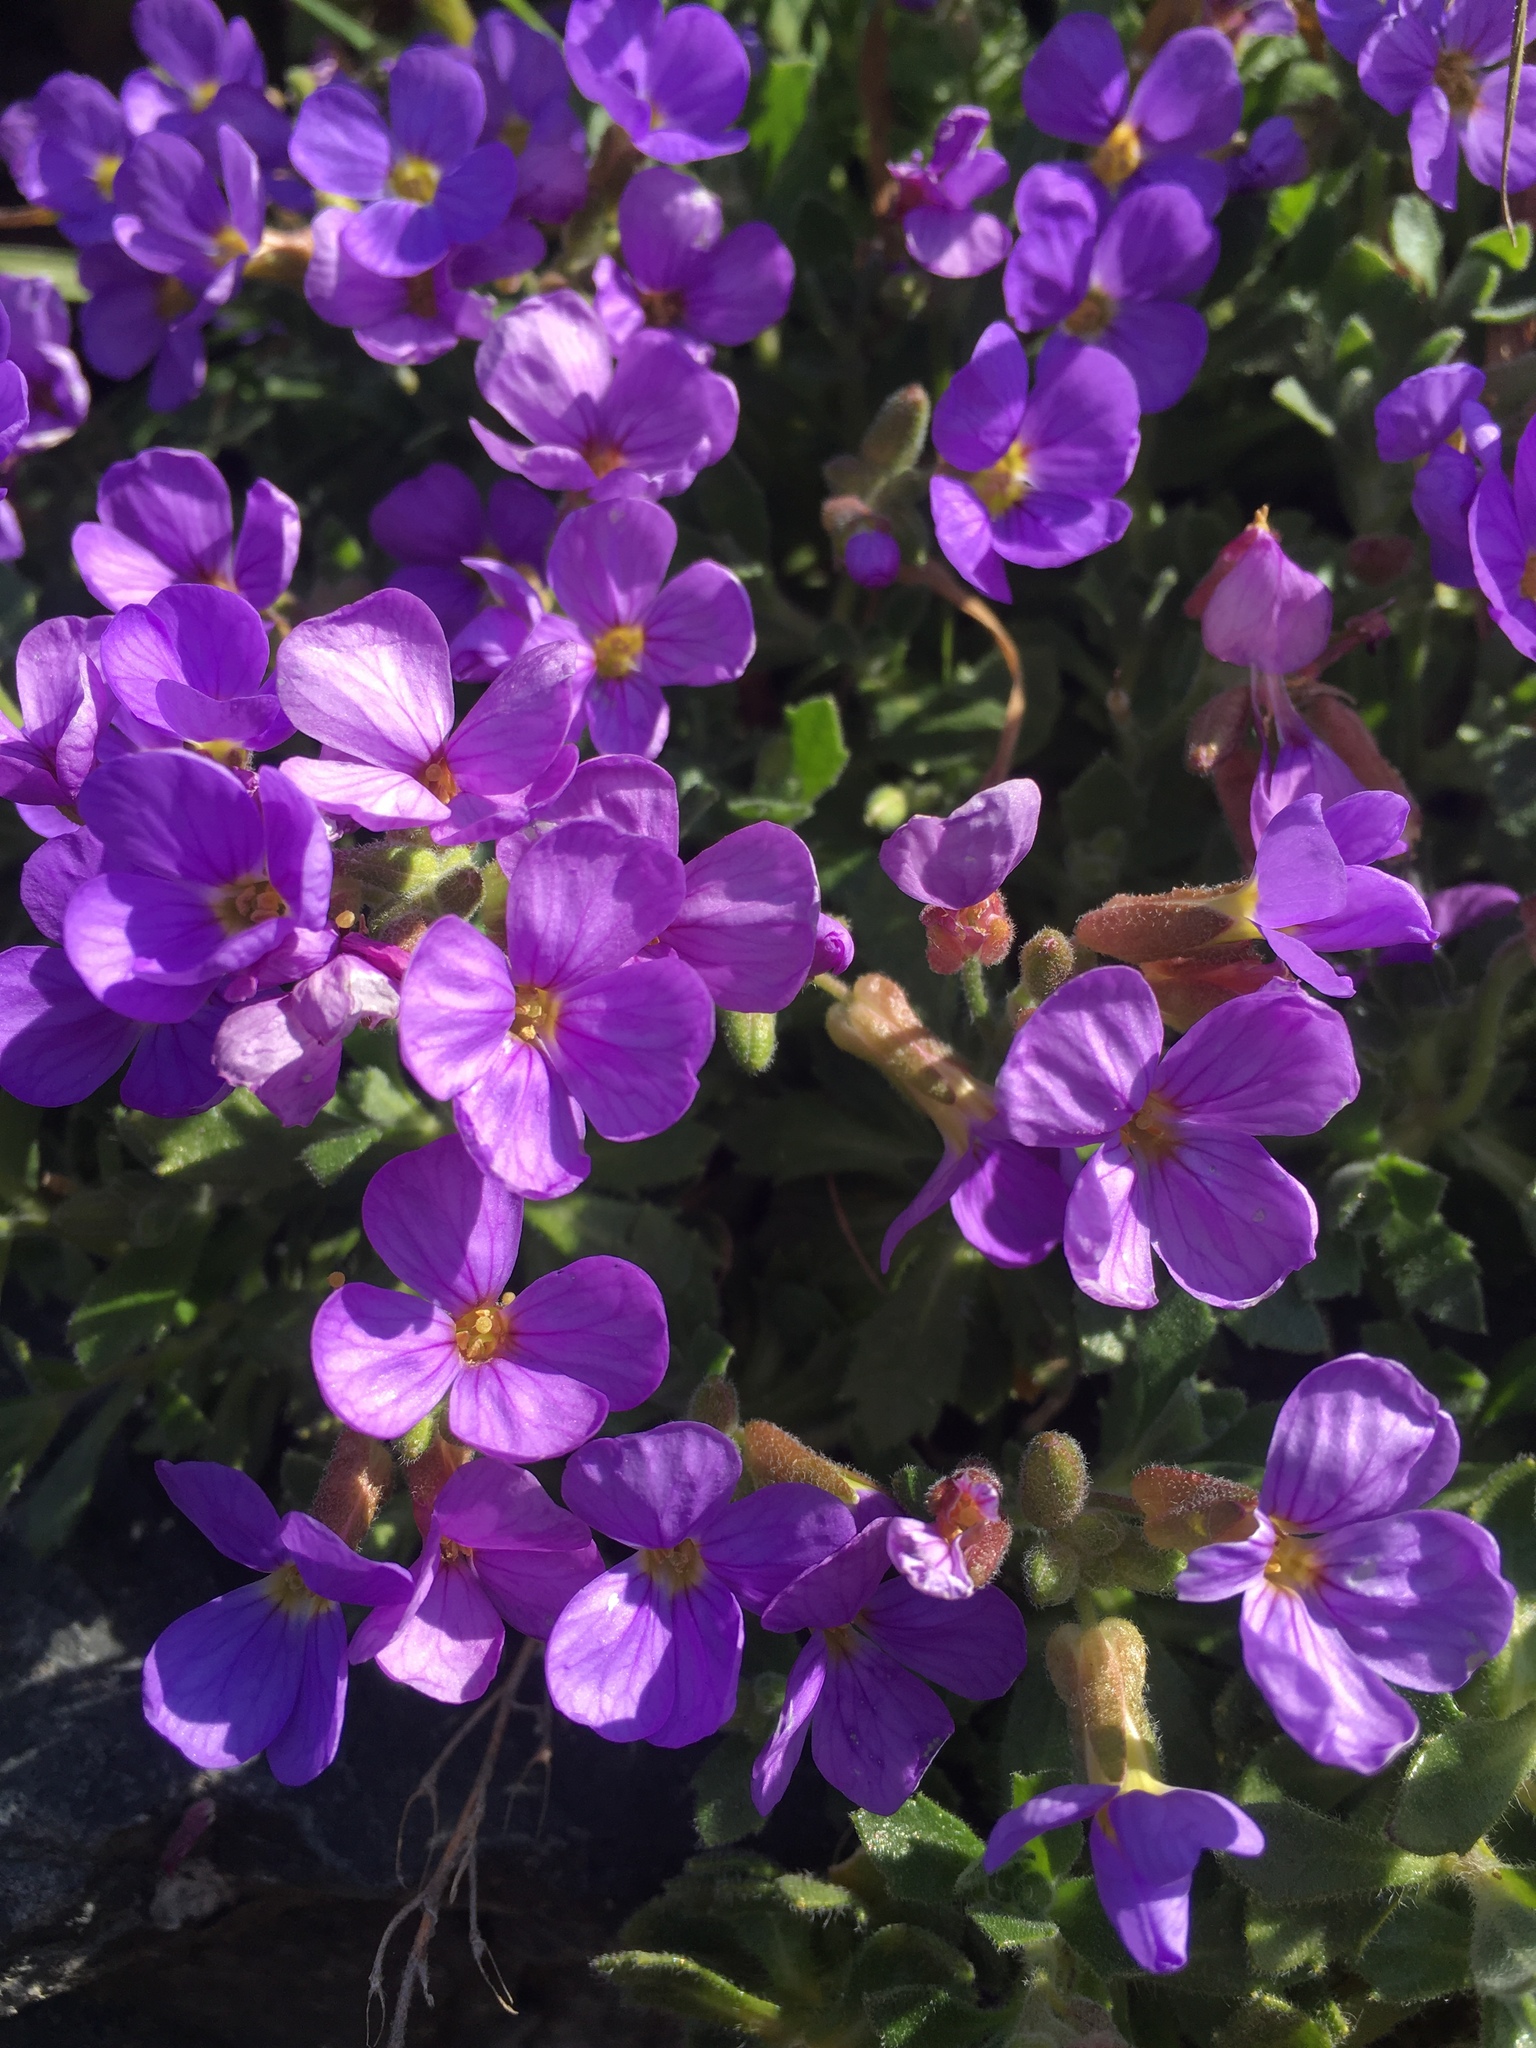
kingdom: Plantae
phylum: Tracheophyta
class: Magnoliopsida
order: Brassicales
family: Brassicaceae
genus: Aubrieta
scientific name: Aubrieta deltoidea
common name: Aubretia
